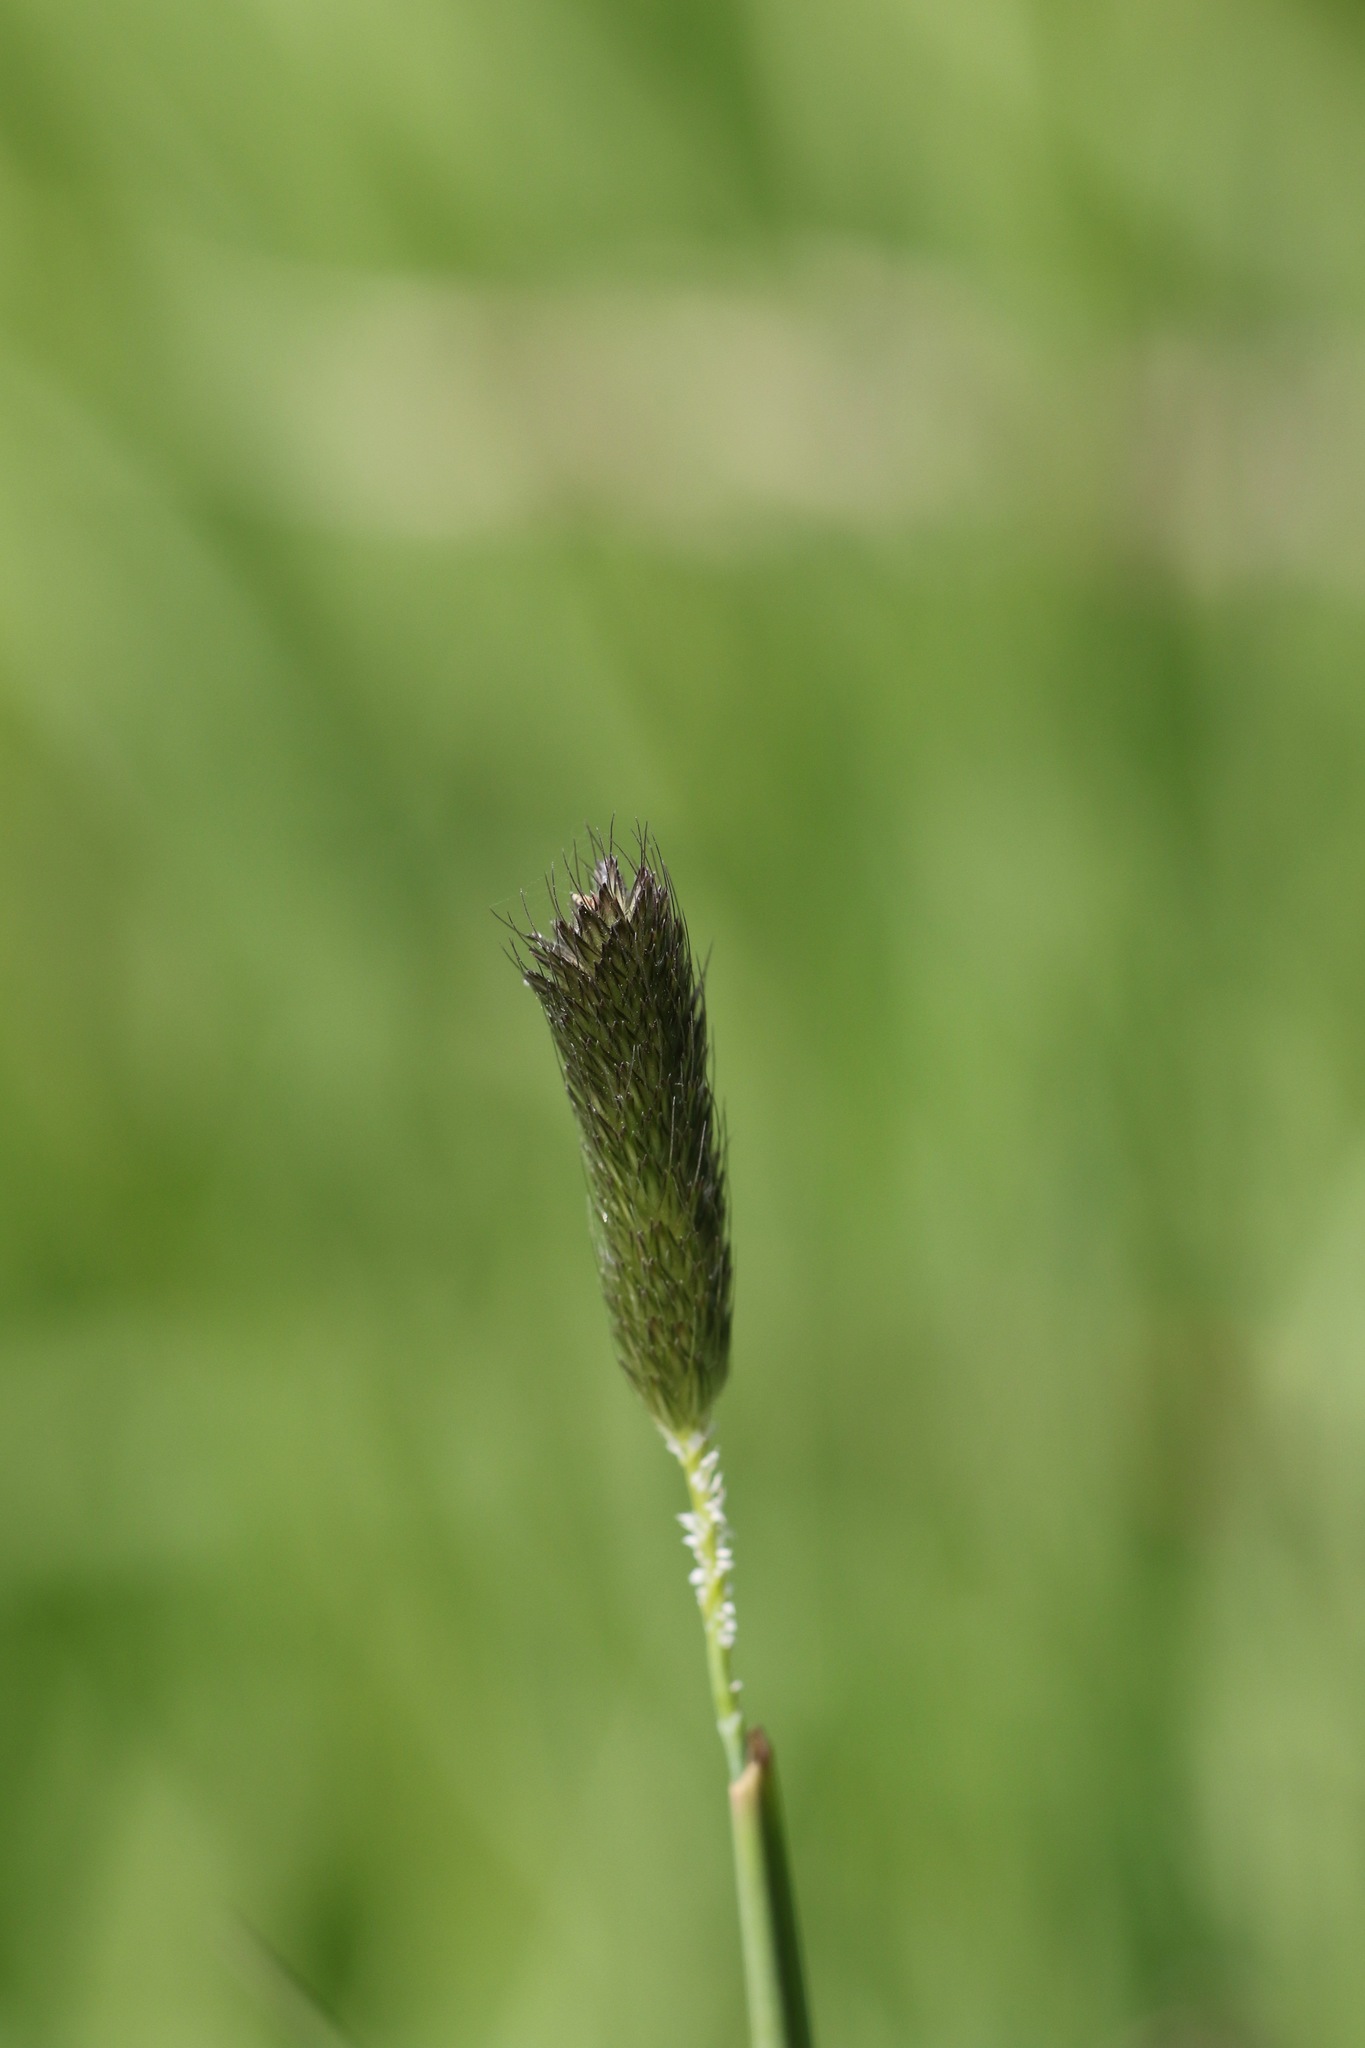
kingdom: Plantae
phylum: Tracheophyta
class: Liliopsida
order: Poales
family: Poaceae
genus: Alopecurus
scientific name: Alopecurus pratensis
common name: Meadow foxtail
